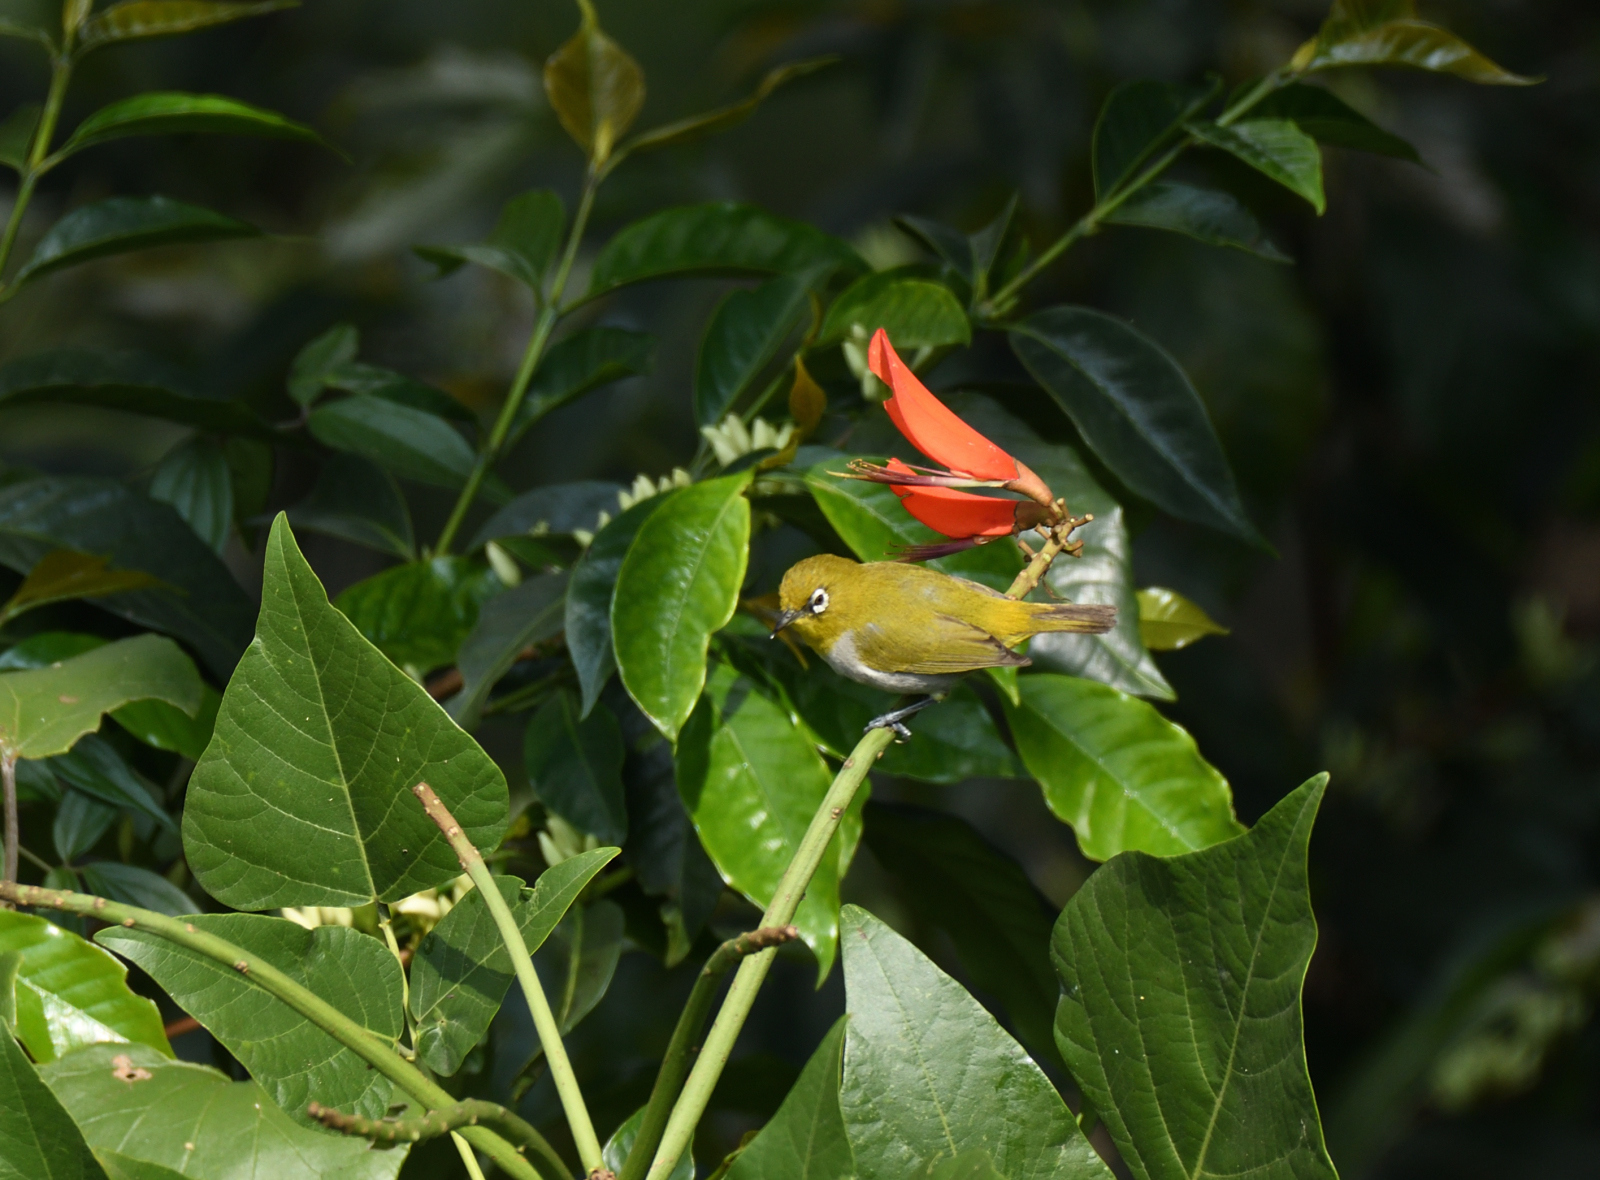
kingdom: Animalia
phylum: Chordata
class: Aves
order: Passeriformes
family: Zosteropidae
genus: Zosterops
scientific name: Zosterops palpebrosus
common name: Oriental white-eye
